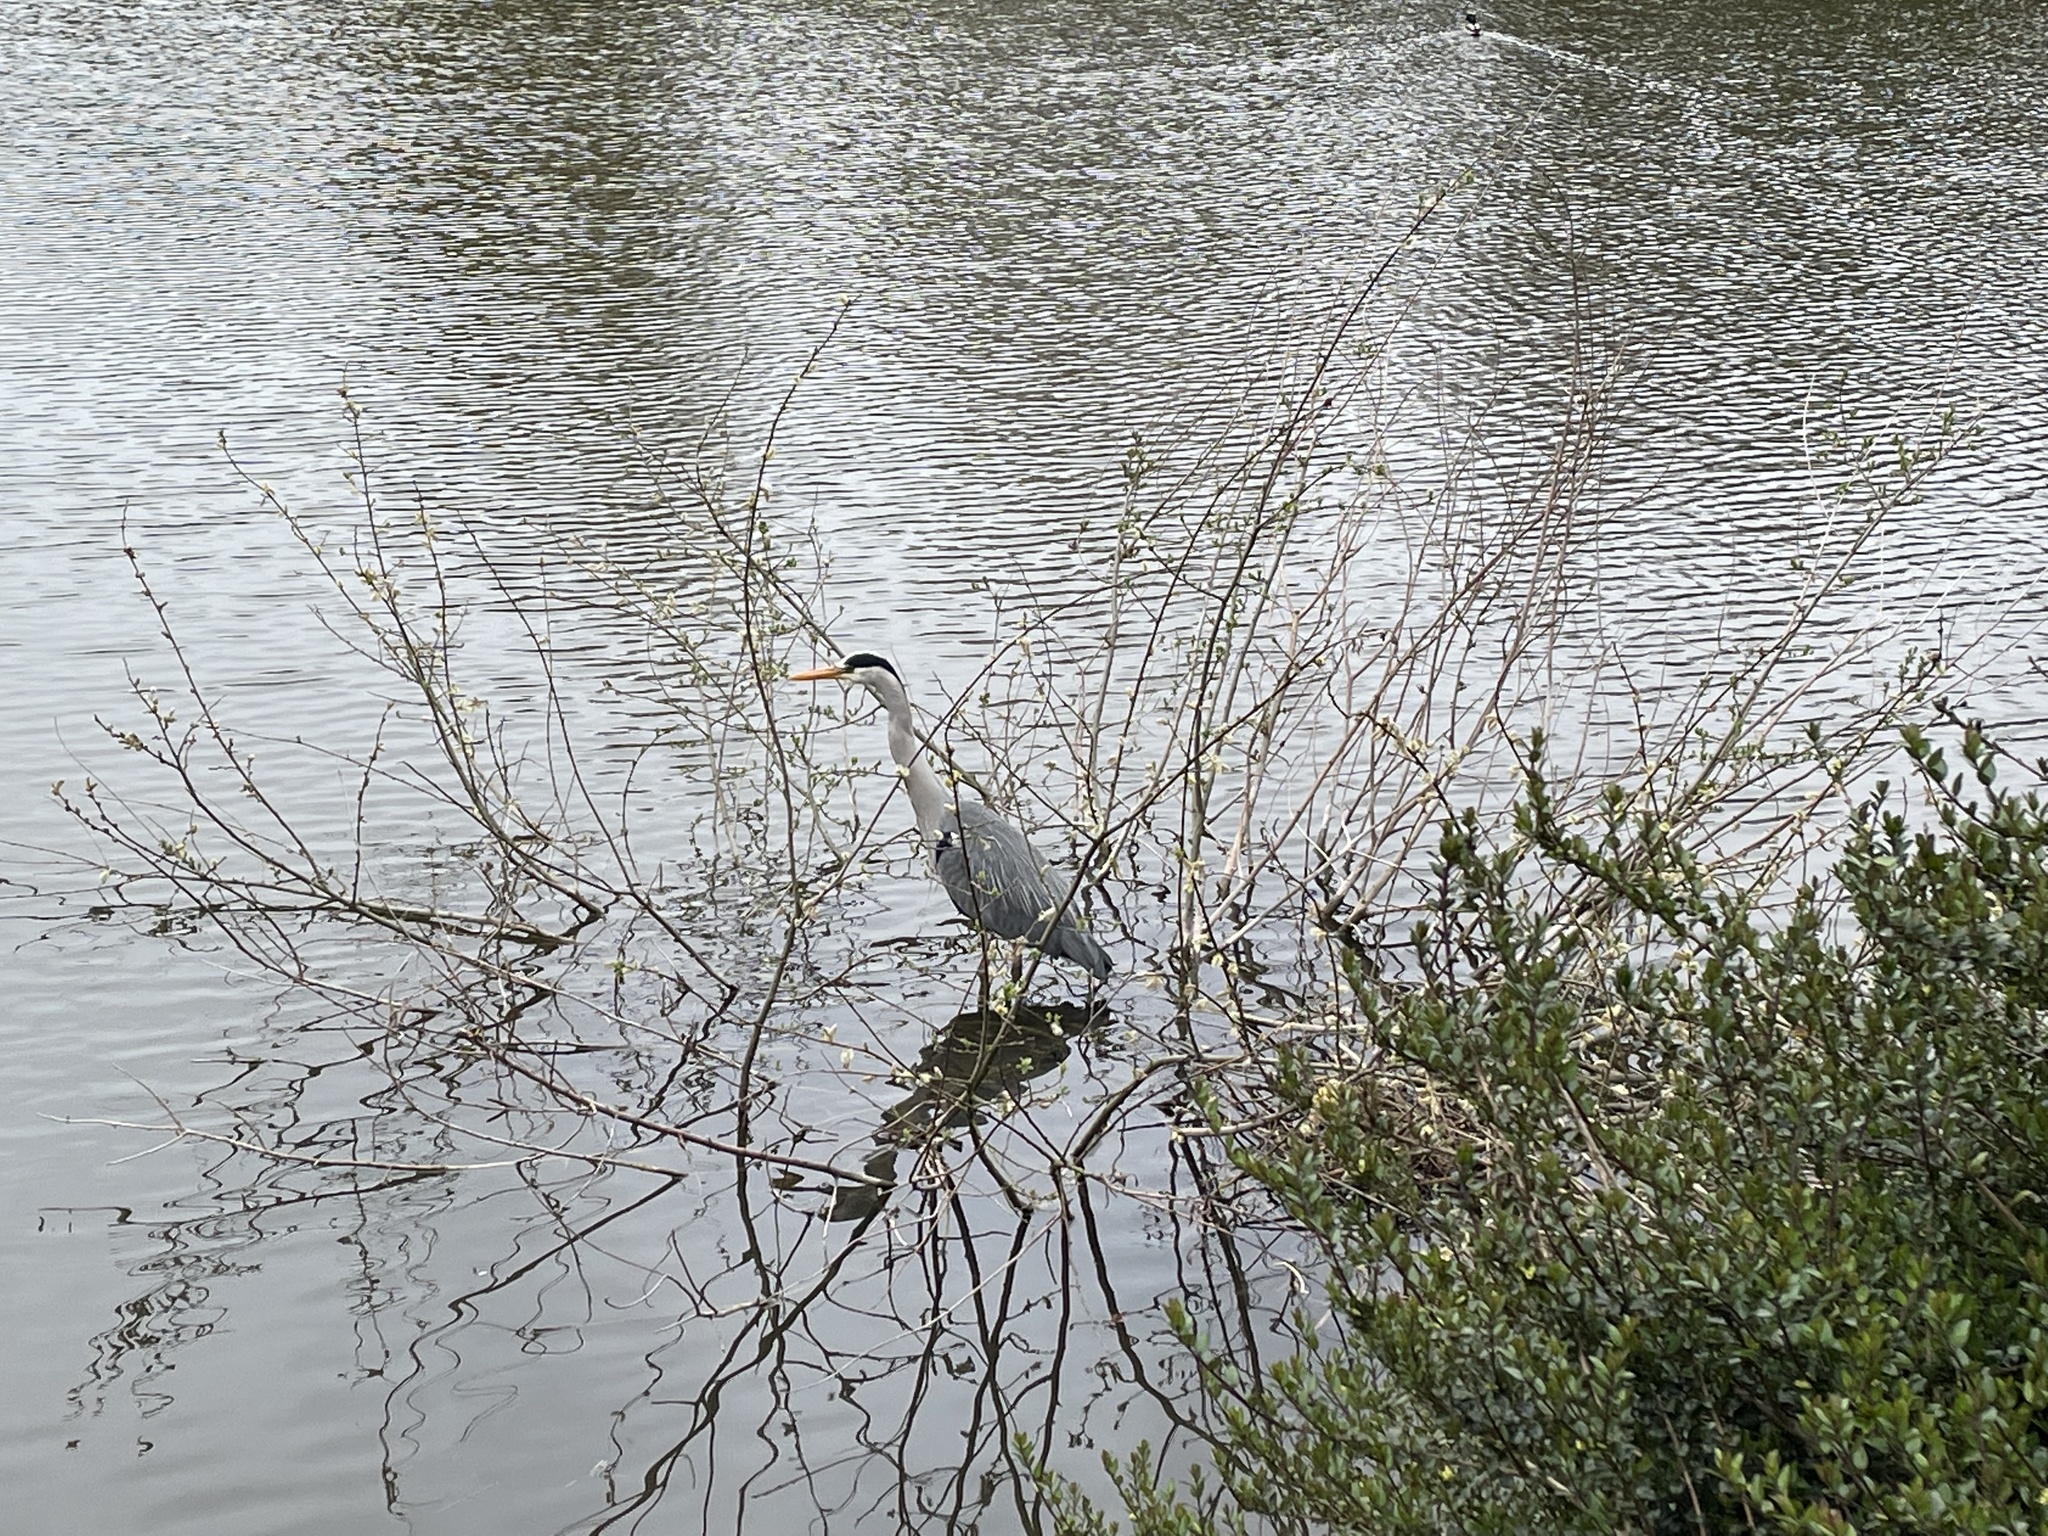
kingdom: Animalia
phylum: Chordata
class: Aves
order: Pelecaniformes
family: Ardeidae
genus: Ardea
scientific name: Ardea cinerea
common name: Grey heron
